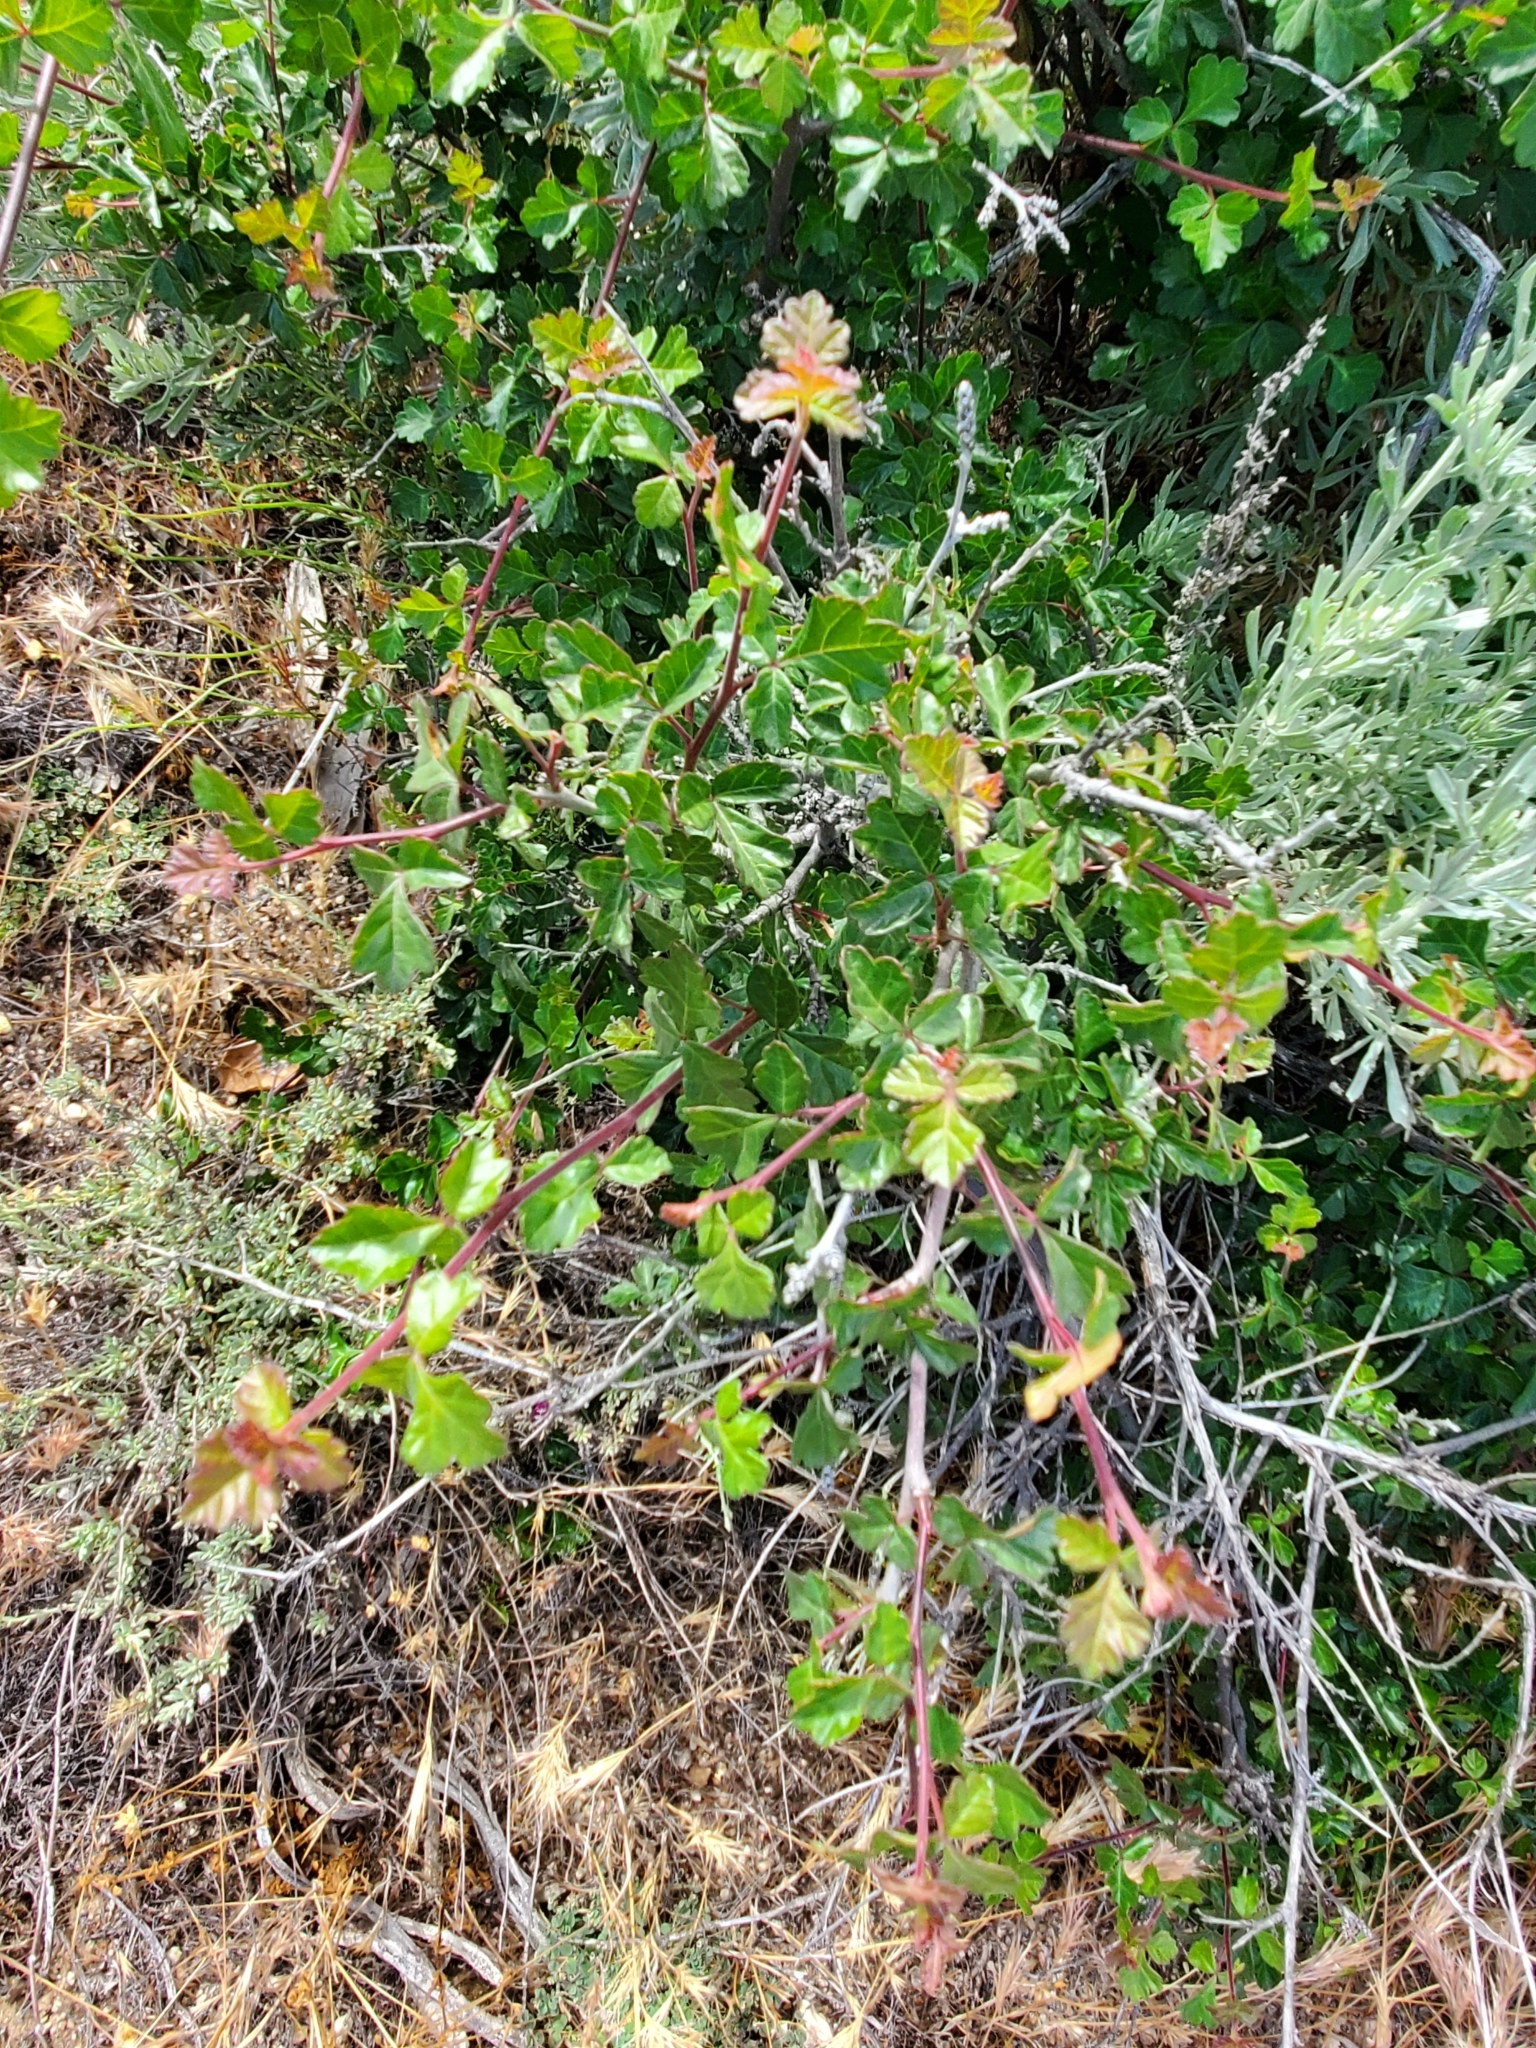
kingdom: Plantae
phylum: Tracheophyta
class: Magnoliopsida
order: Sapindales
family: Anacardiaceae
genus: Rhus
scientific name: Rhus aromatica
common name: Aromatic sumac
